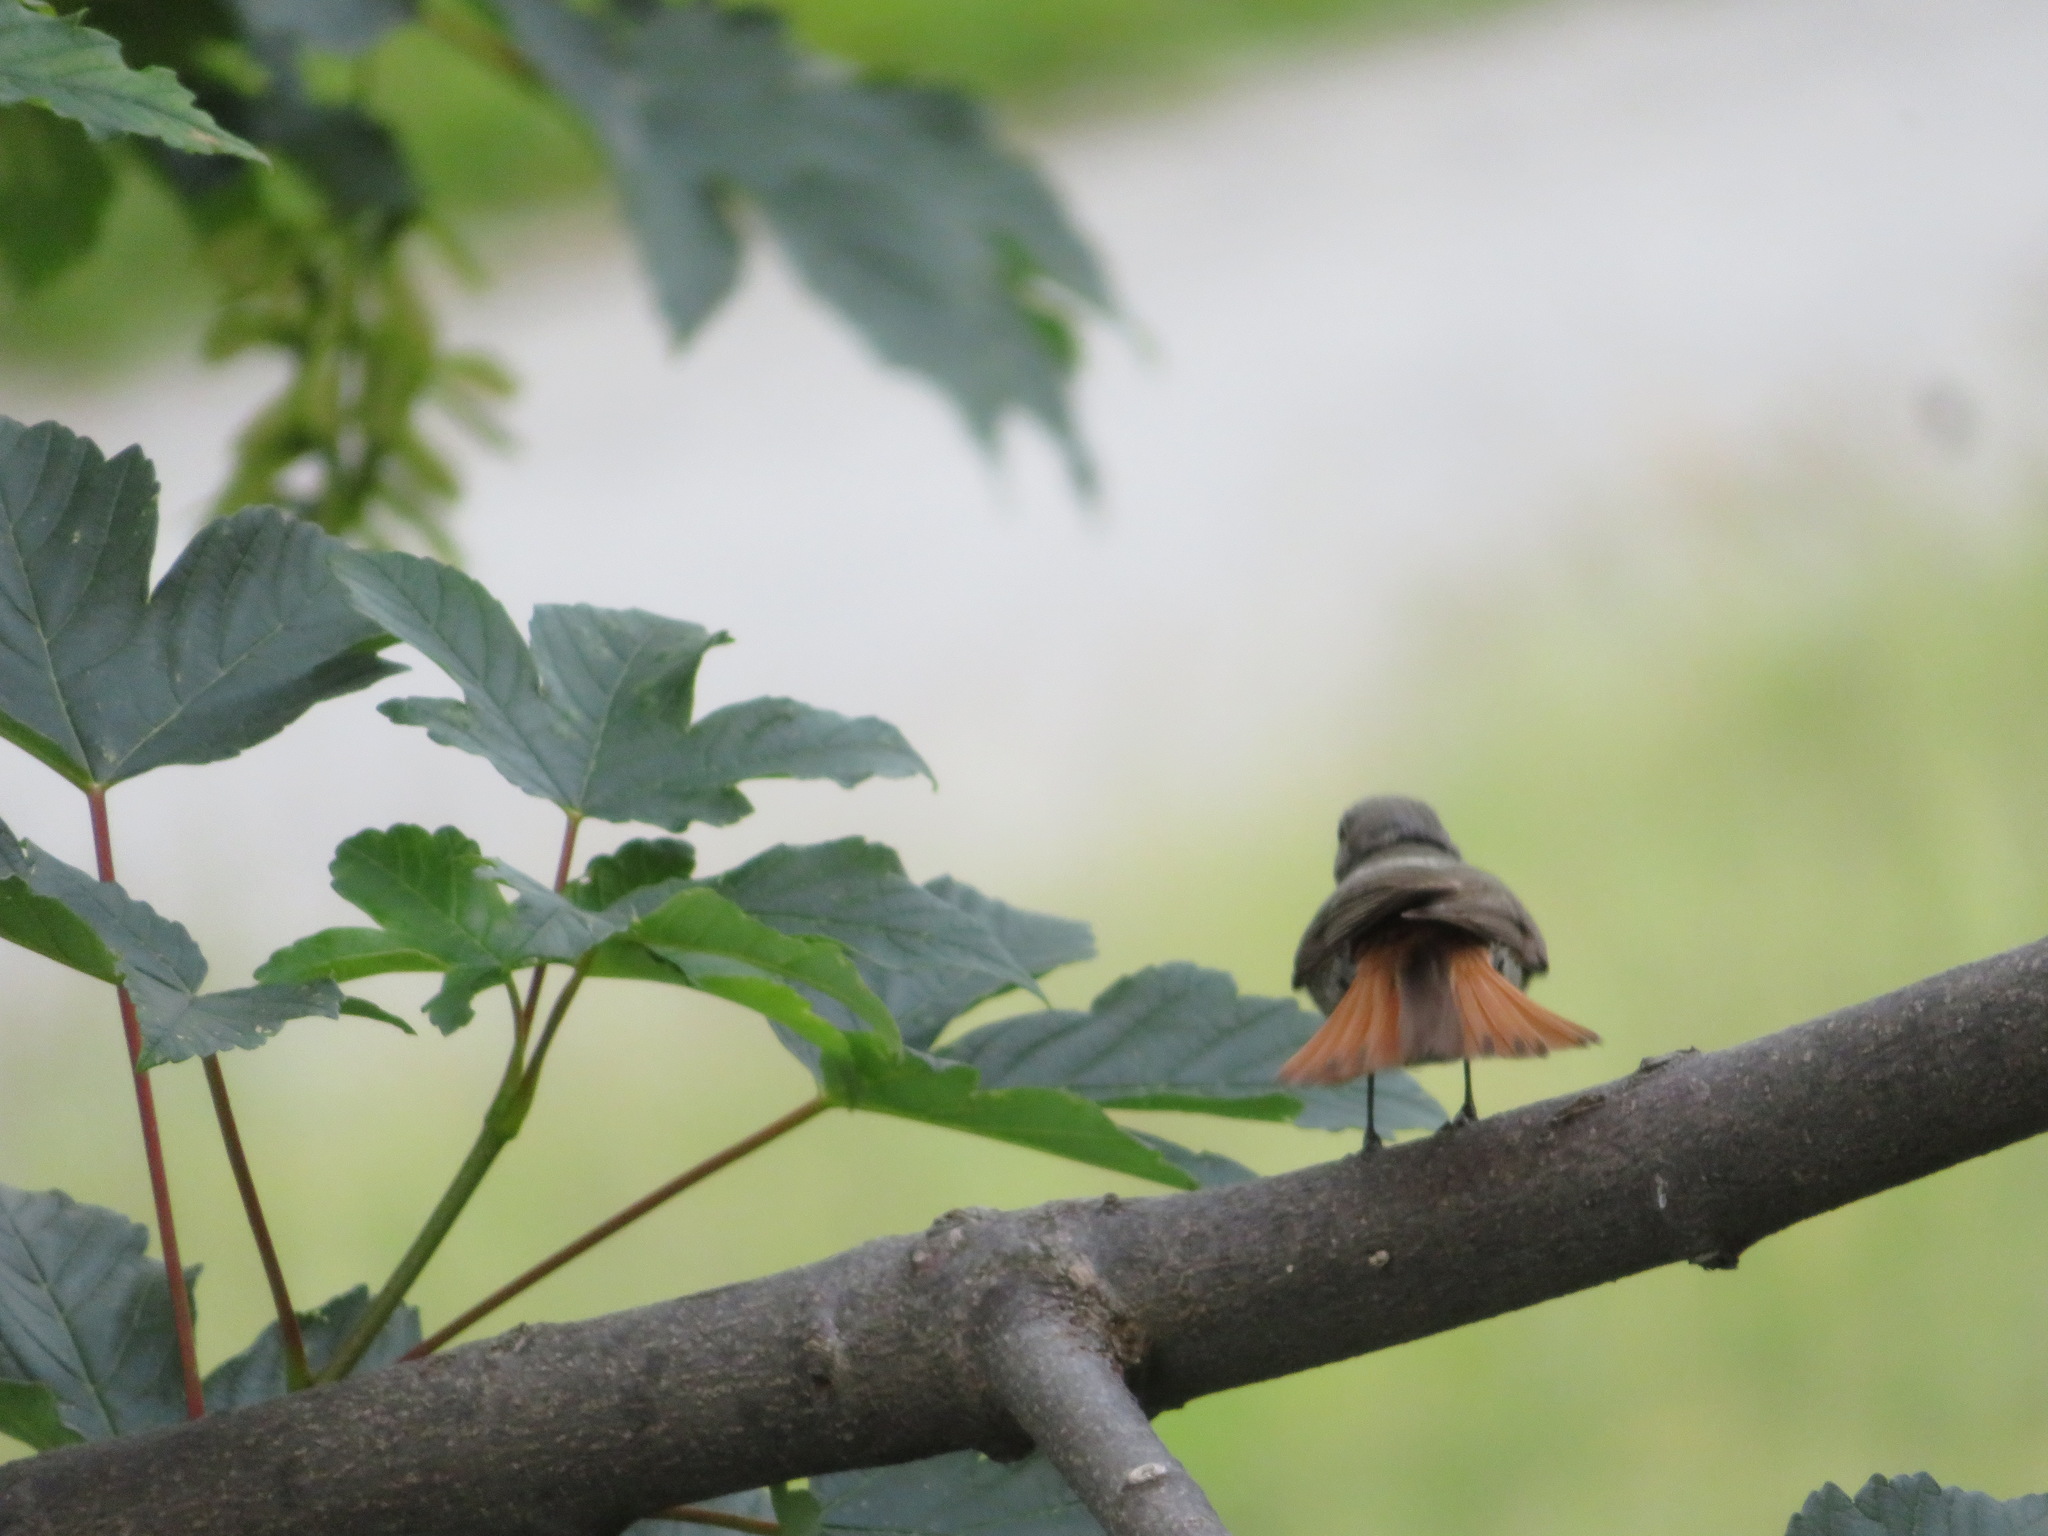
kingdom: Animalia
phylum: Chordata
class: Aves
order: Passeriformes
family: Muscicapidae
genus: Phoenicurus
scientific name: Phoenicurus ochruros
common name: Black redstart
